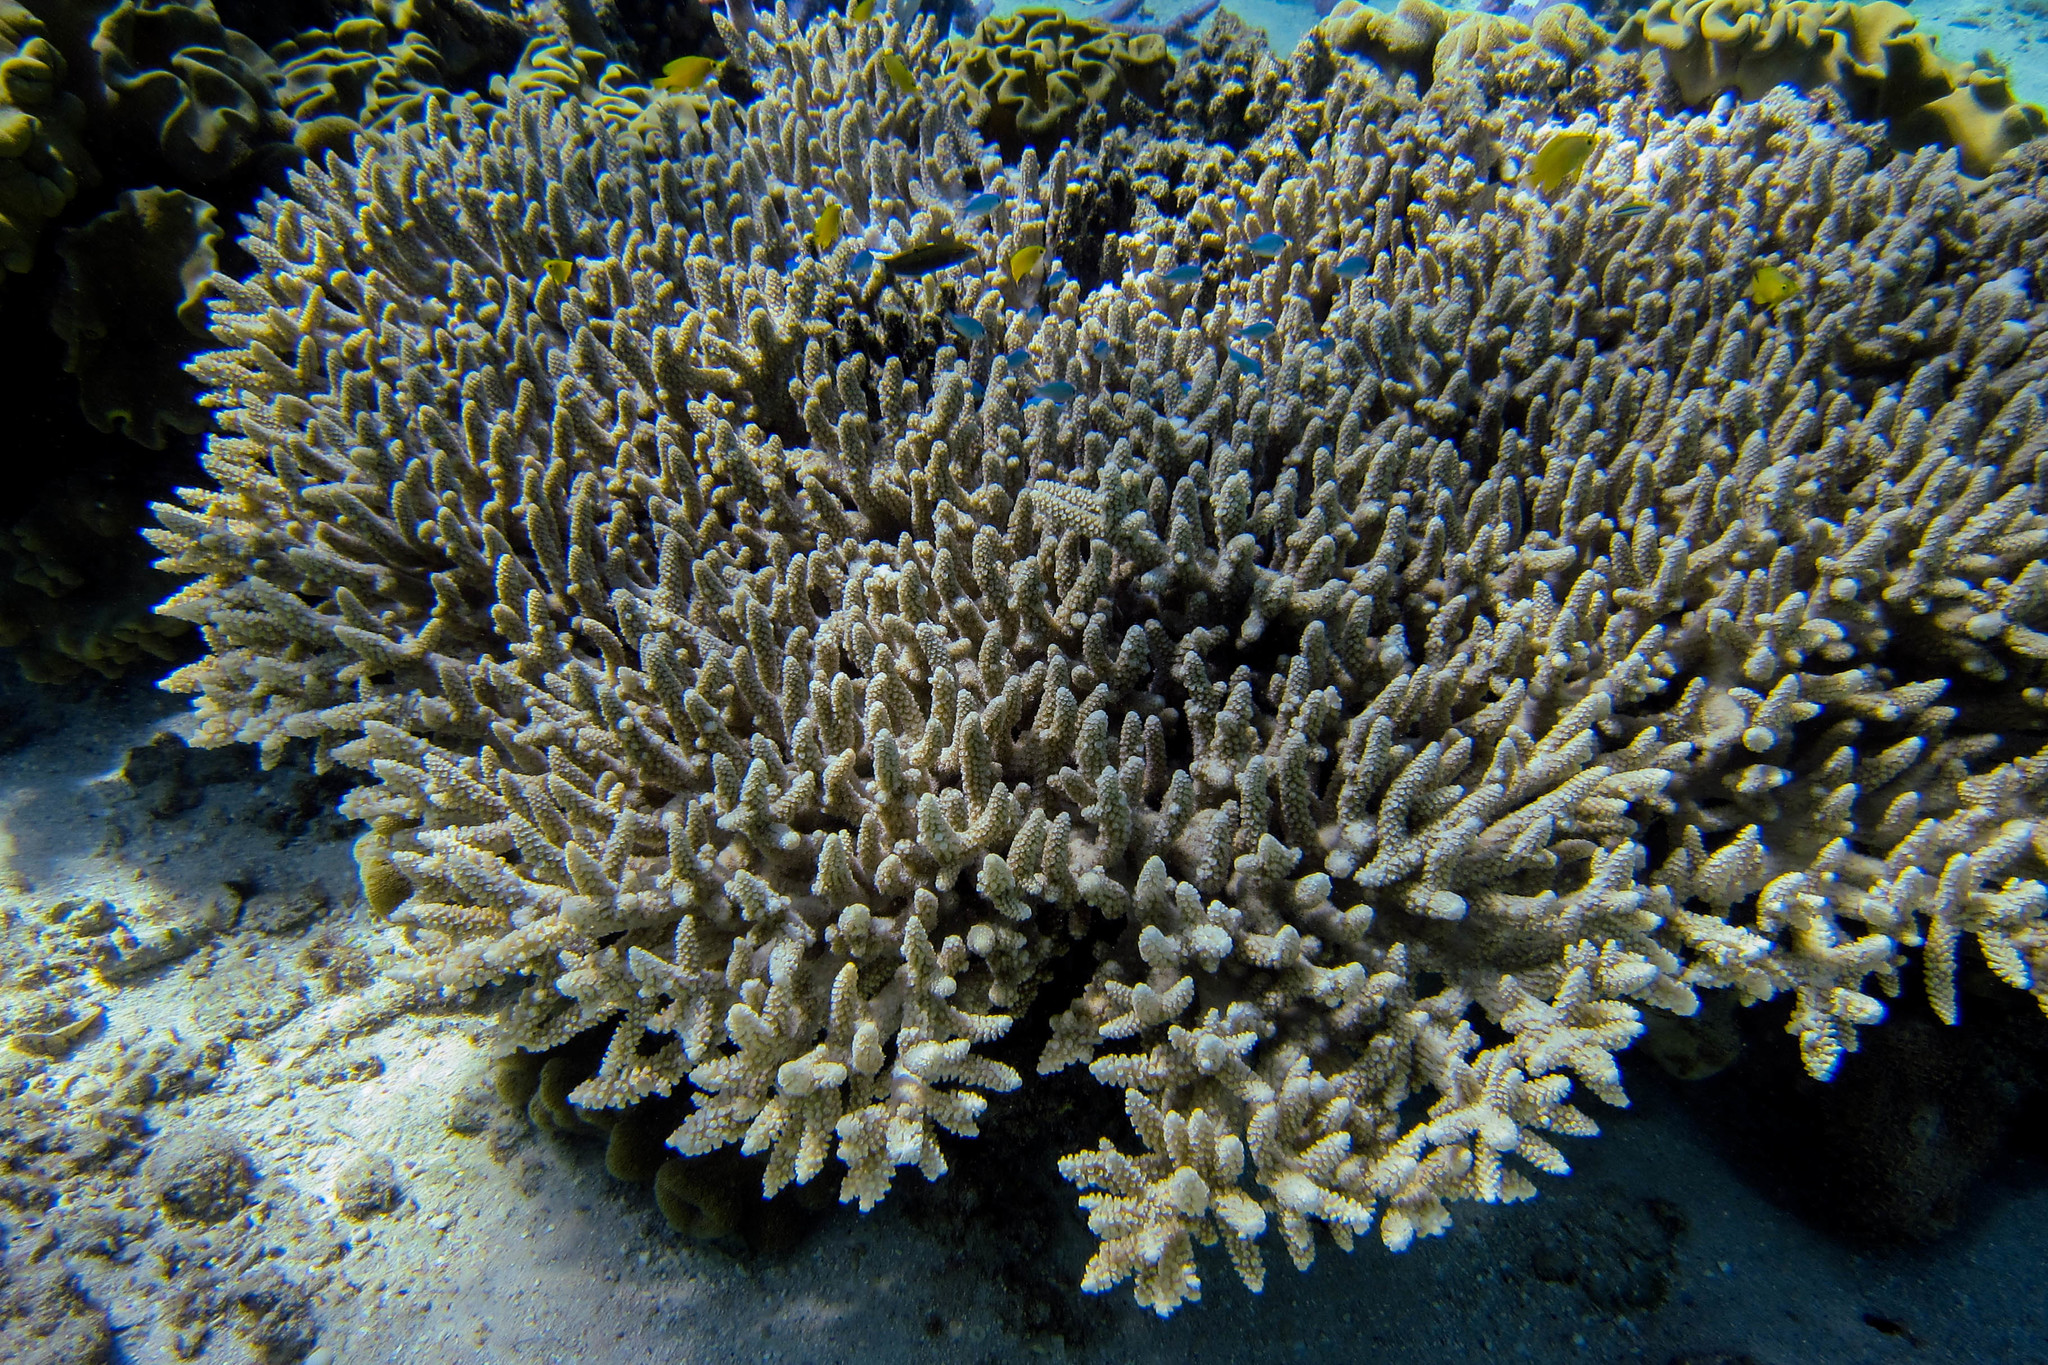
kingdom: Animalia
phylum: Chordata
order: Perciformes
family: Pomacentridae
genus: Chromis
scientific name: Chromis viridis
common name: Blue-green chromis
